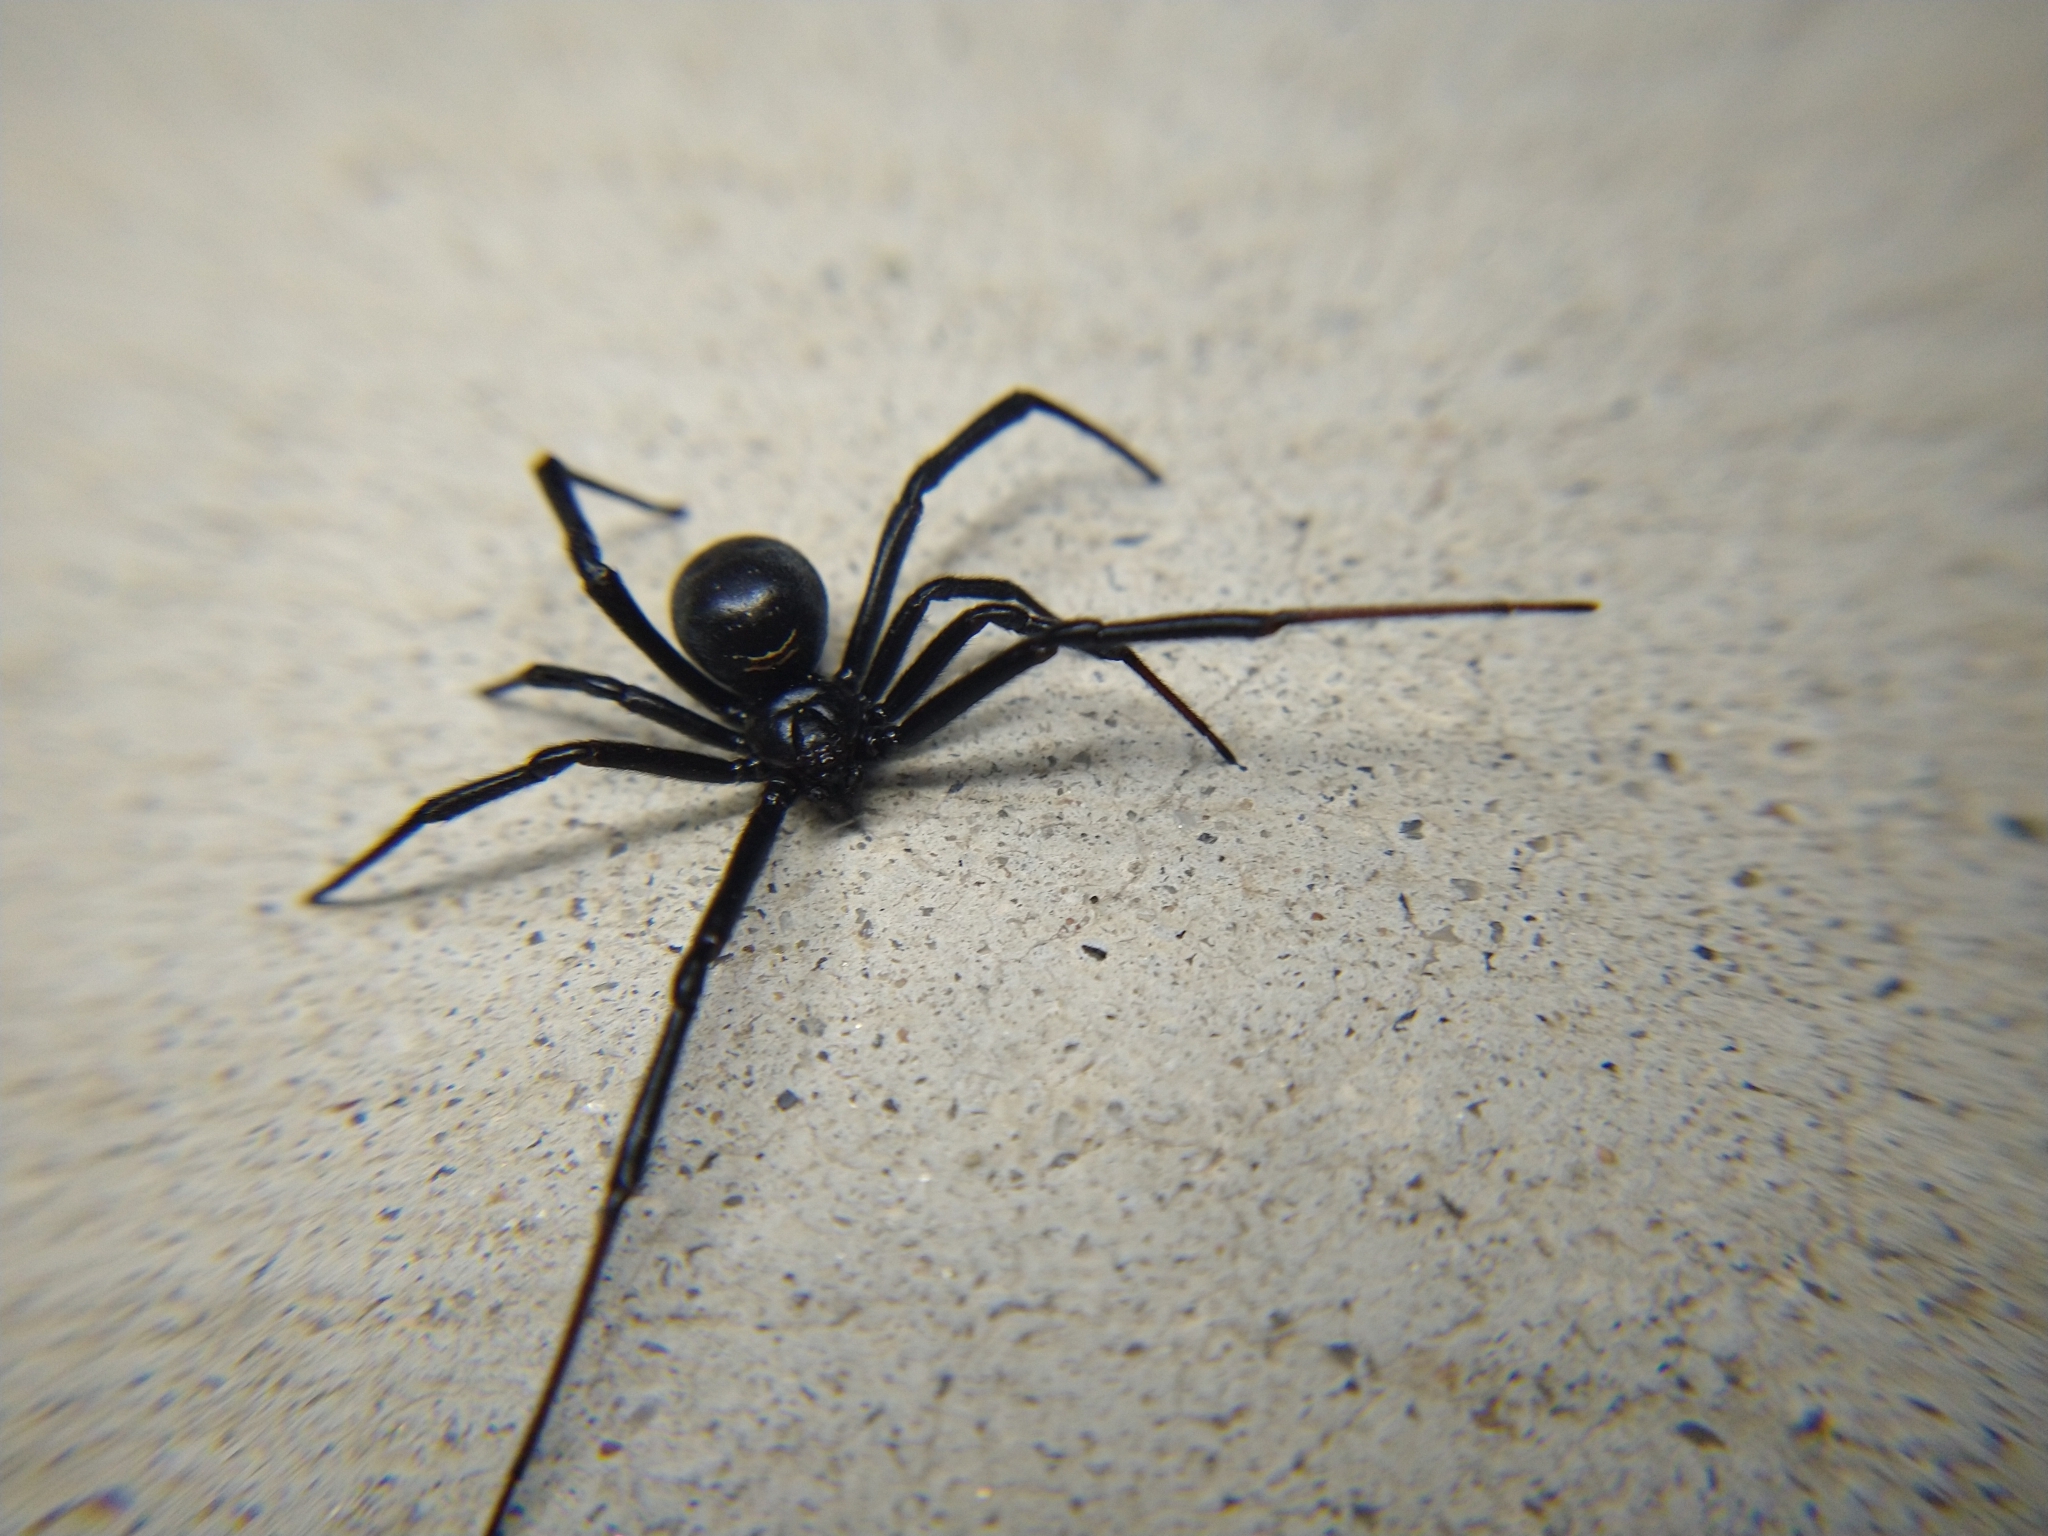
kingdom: Animalia
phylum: Arthropoda
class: Arachnida
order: Araneae
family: Theridiidae
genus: Latrodectus
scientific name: Latrodectus hesperus
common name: Western black widow
